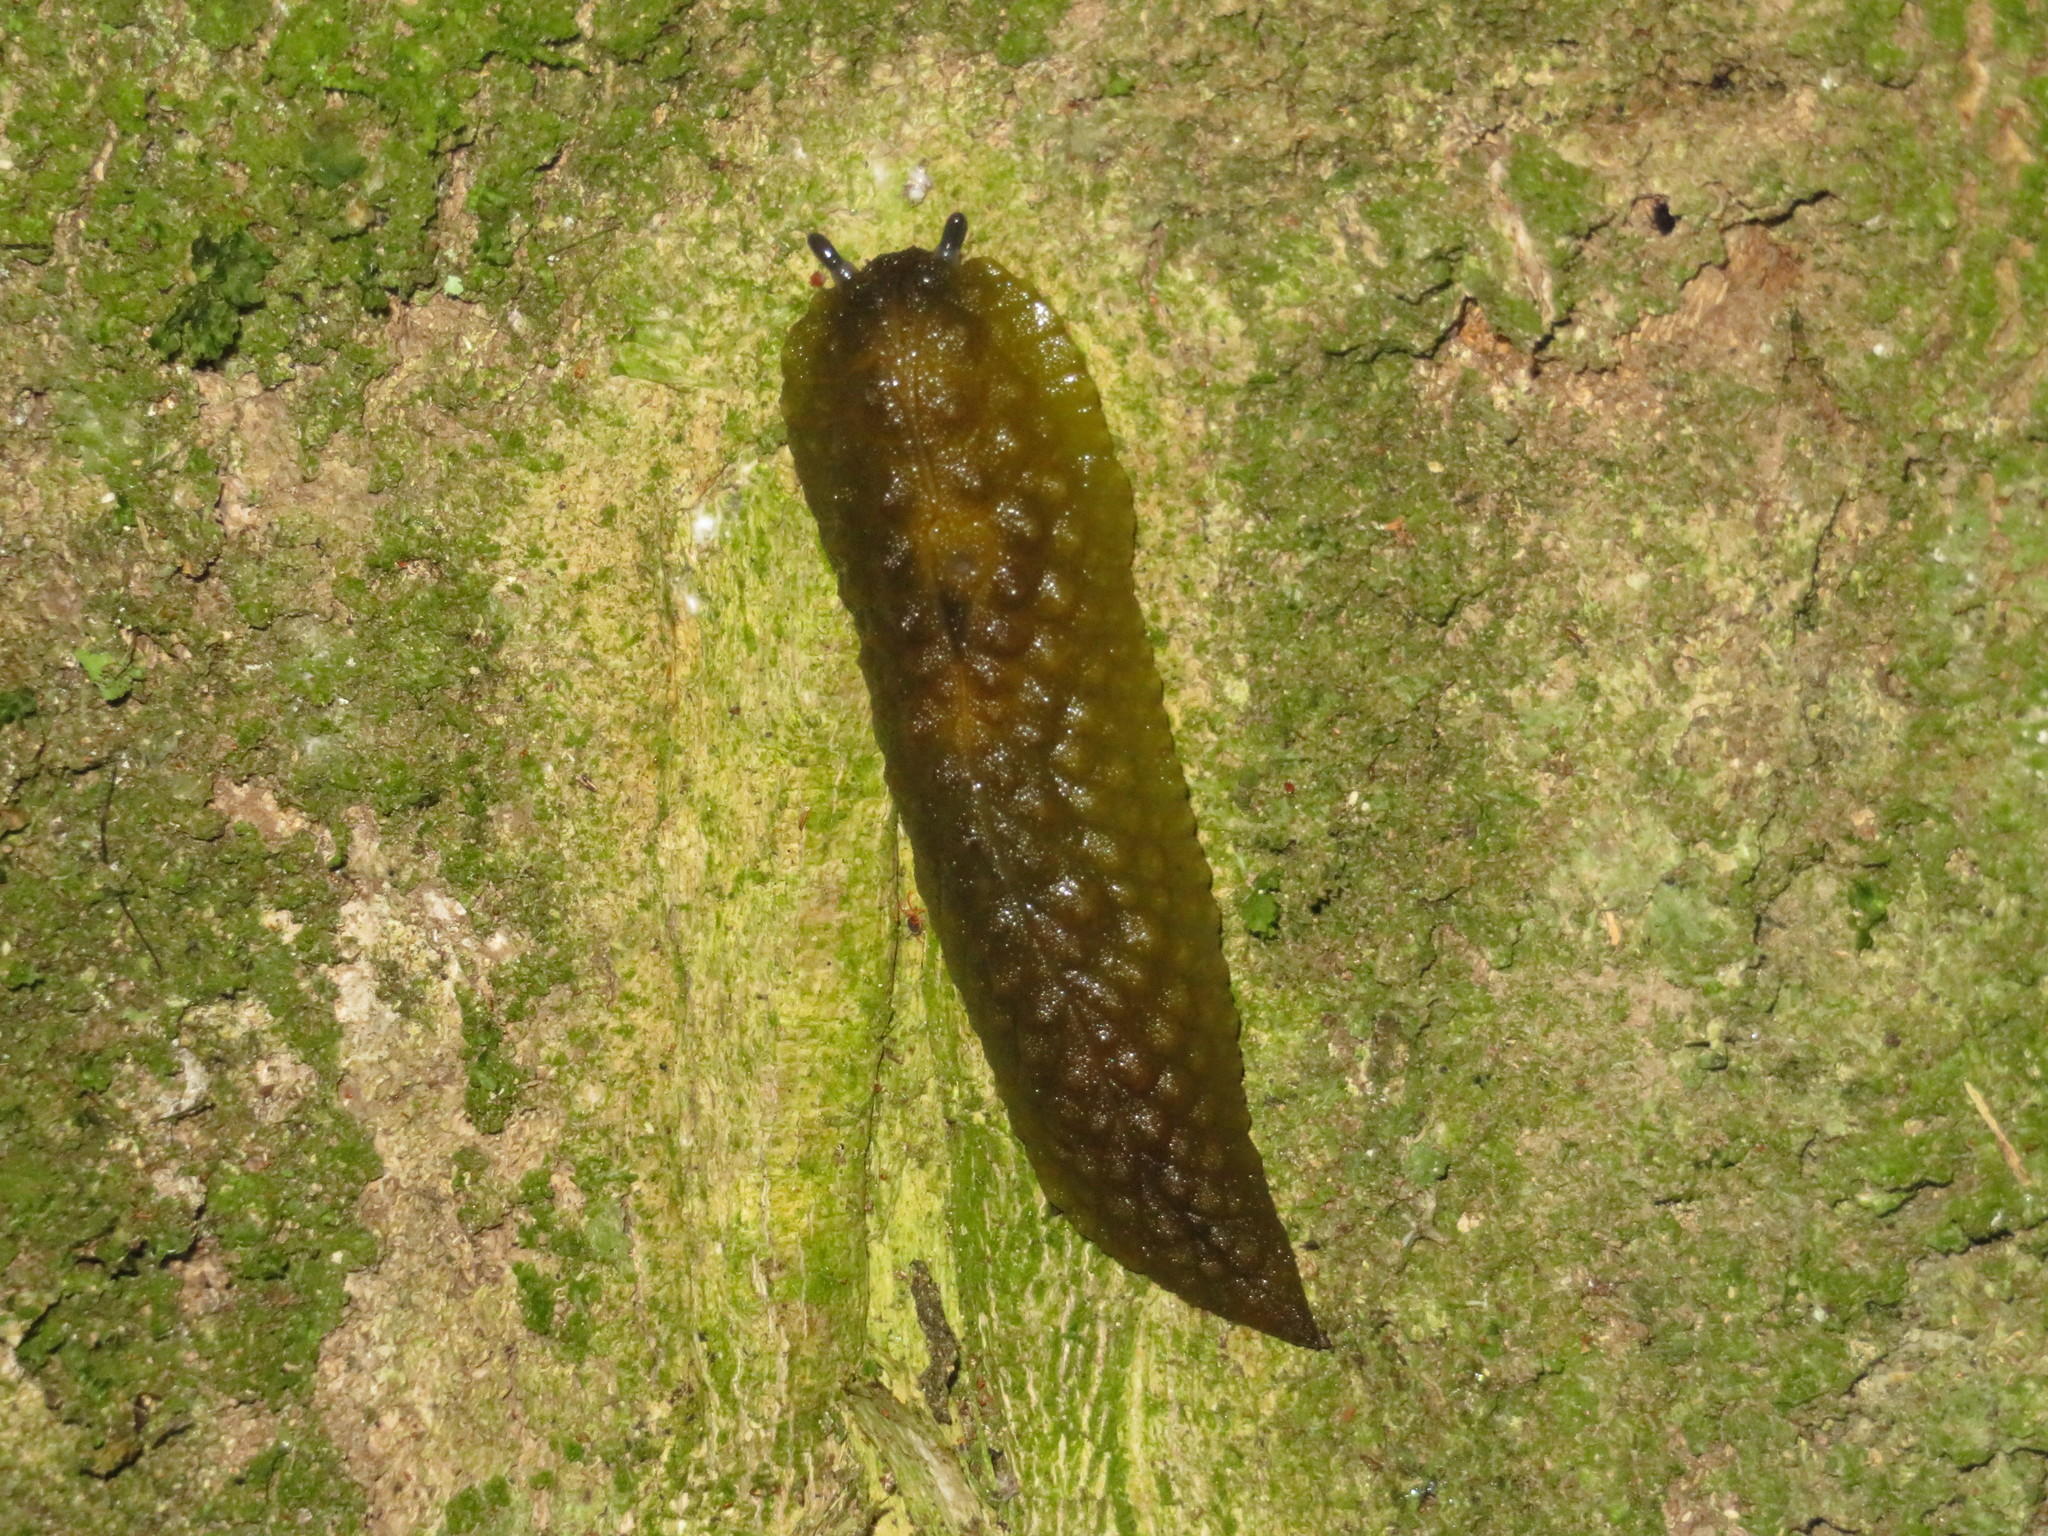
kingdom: Animalia
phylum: Mollusca
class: Gastropoda
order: Stylommatophora
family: Athoracophoridae
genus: Athoracophorus
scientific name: Athoracophorus papillatus
